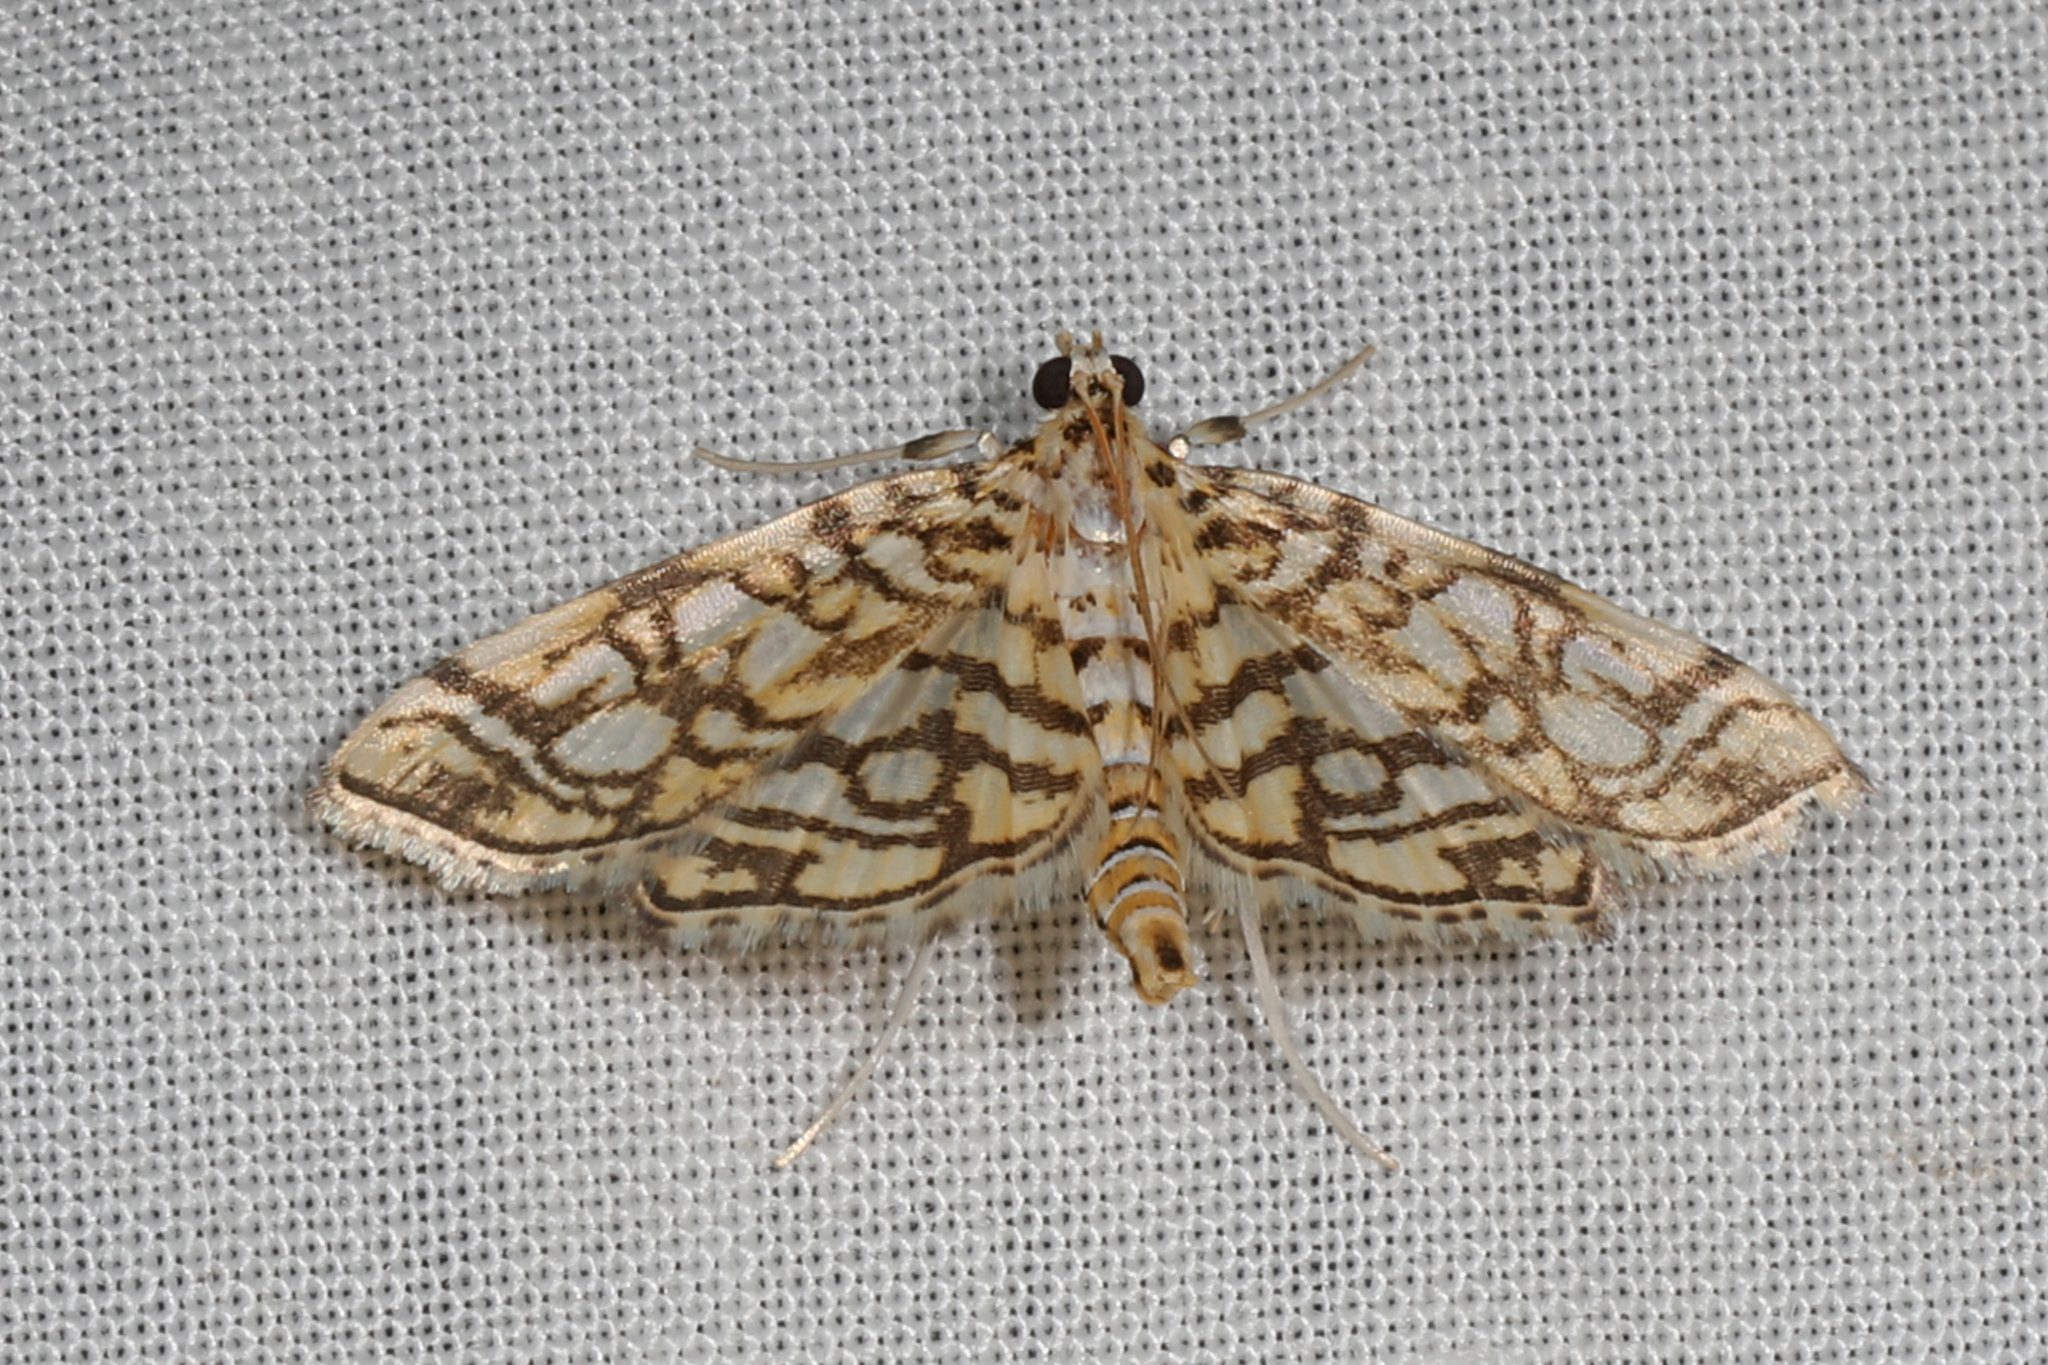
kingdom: Animalia
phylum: Arthropoda
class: Insecta
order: Lepidoptera
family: Crambidae
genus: Lygropia
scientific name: Lygropia rivulalis
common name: Bog lygropia moth
